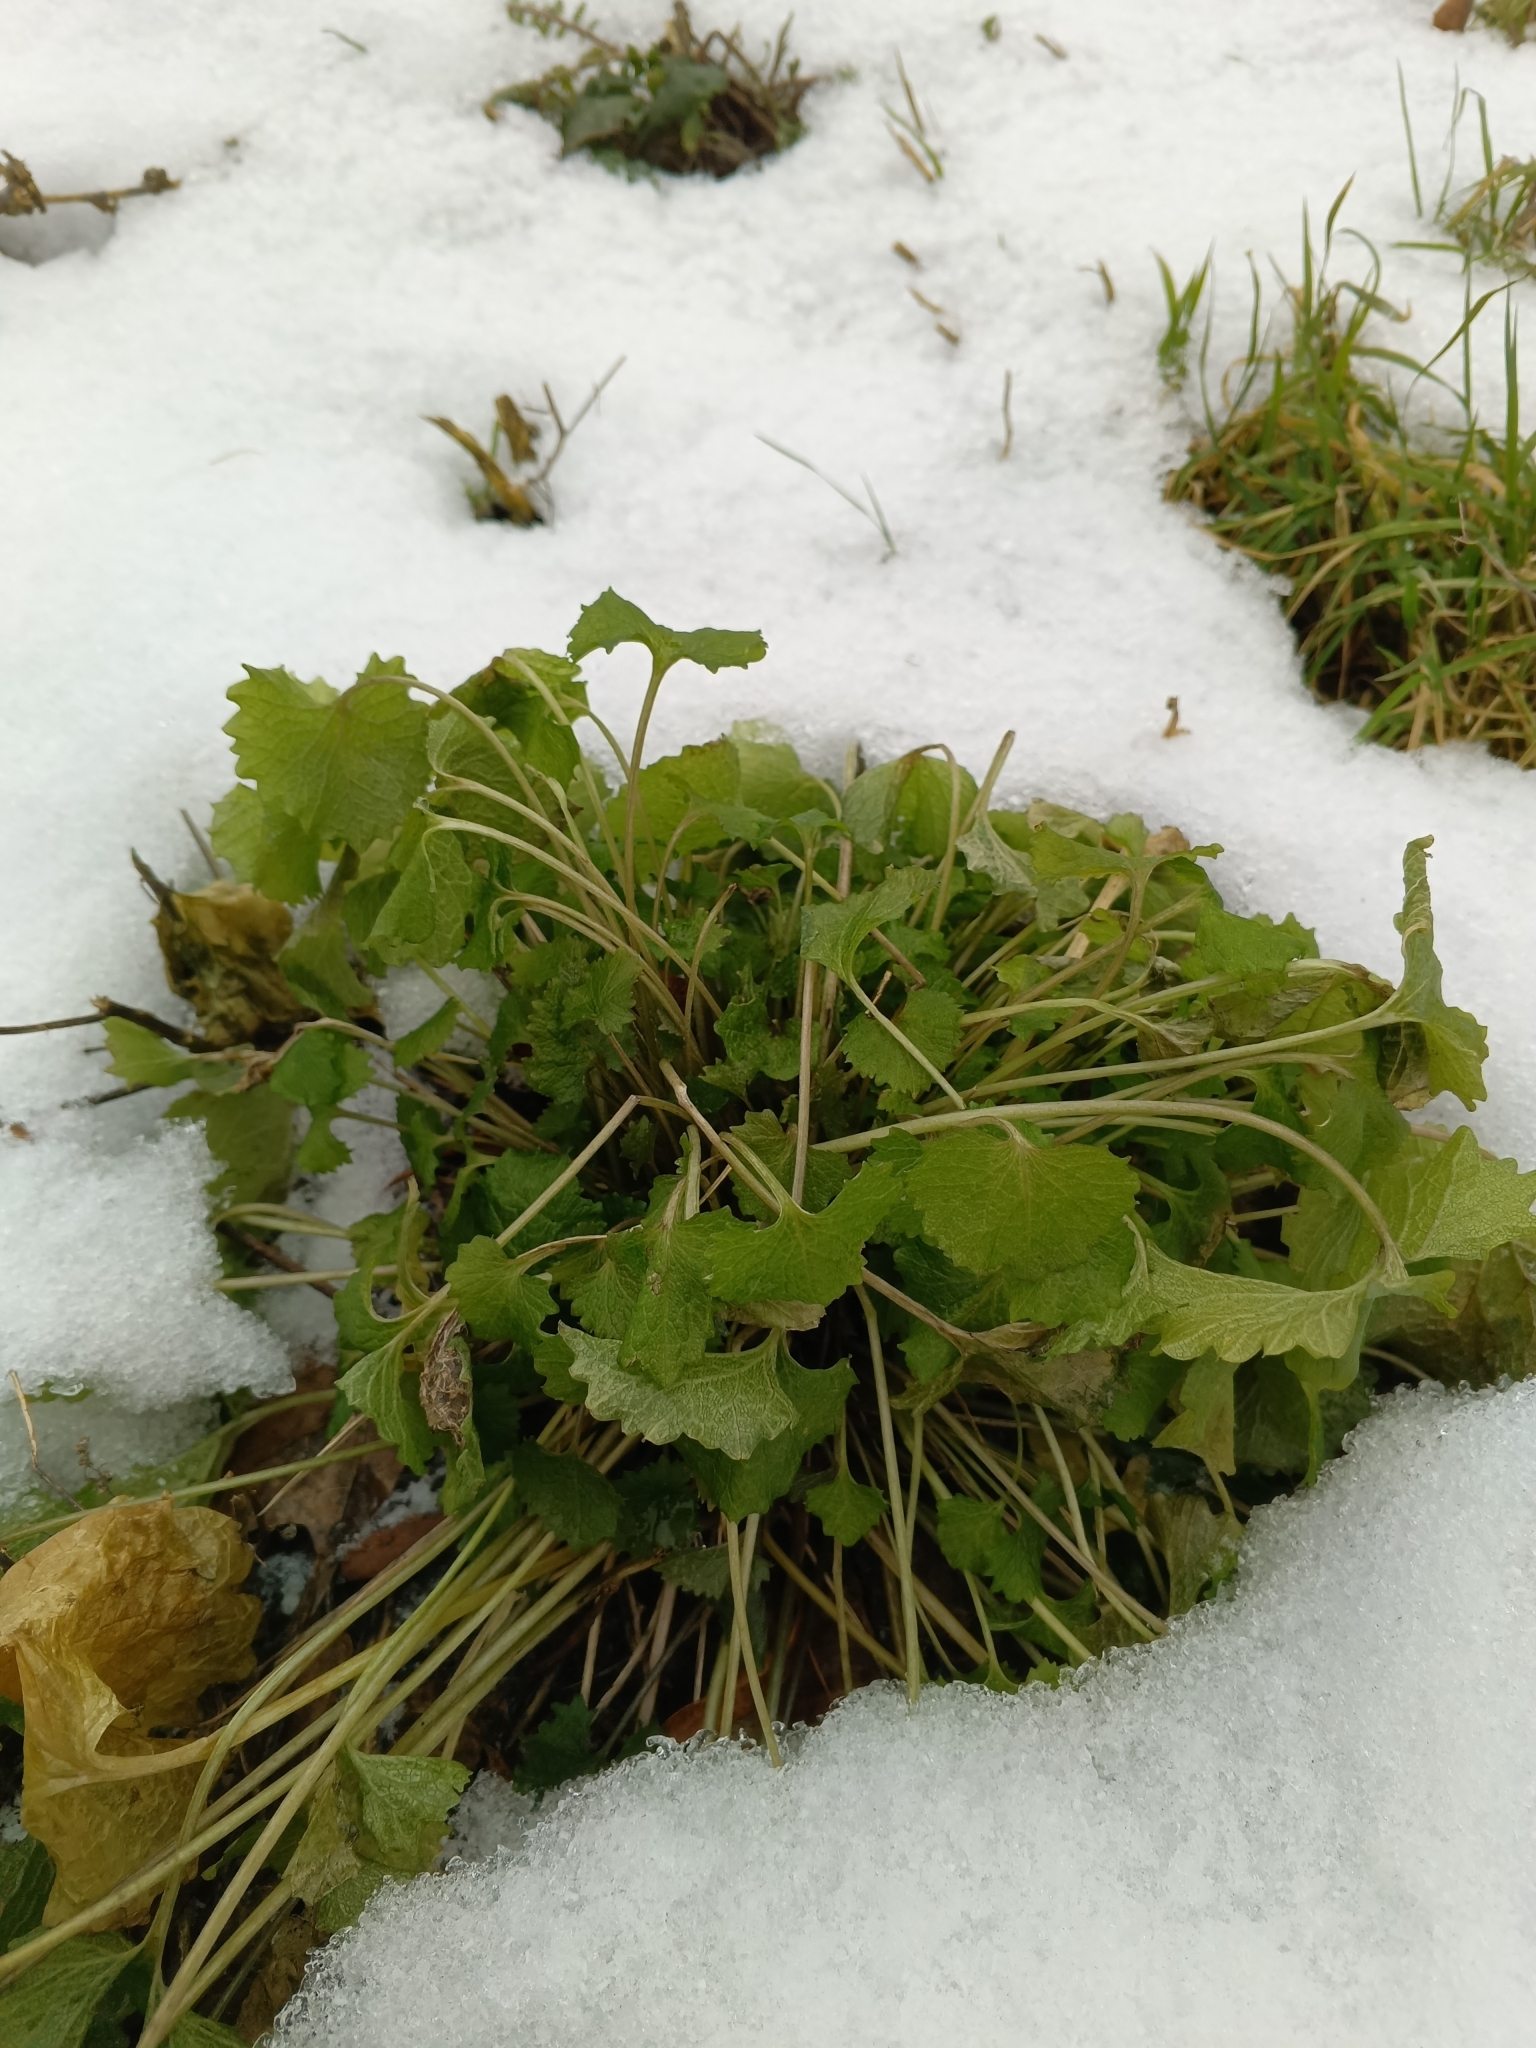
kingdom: Plantae
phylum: Tracheophyta
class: Magnoliopsida
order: Brassicales
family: Brassicaceae
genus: Alliaria
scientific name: Alliaria petiolata
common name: Garlic mustard
